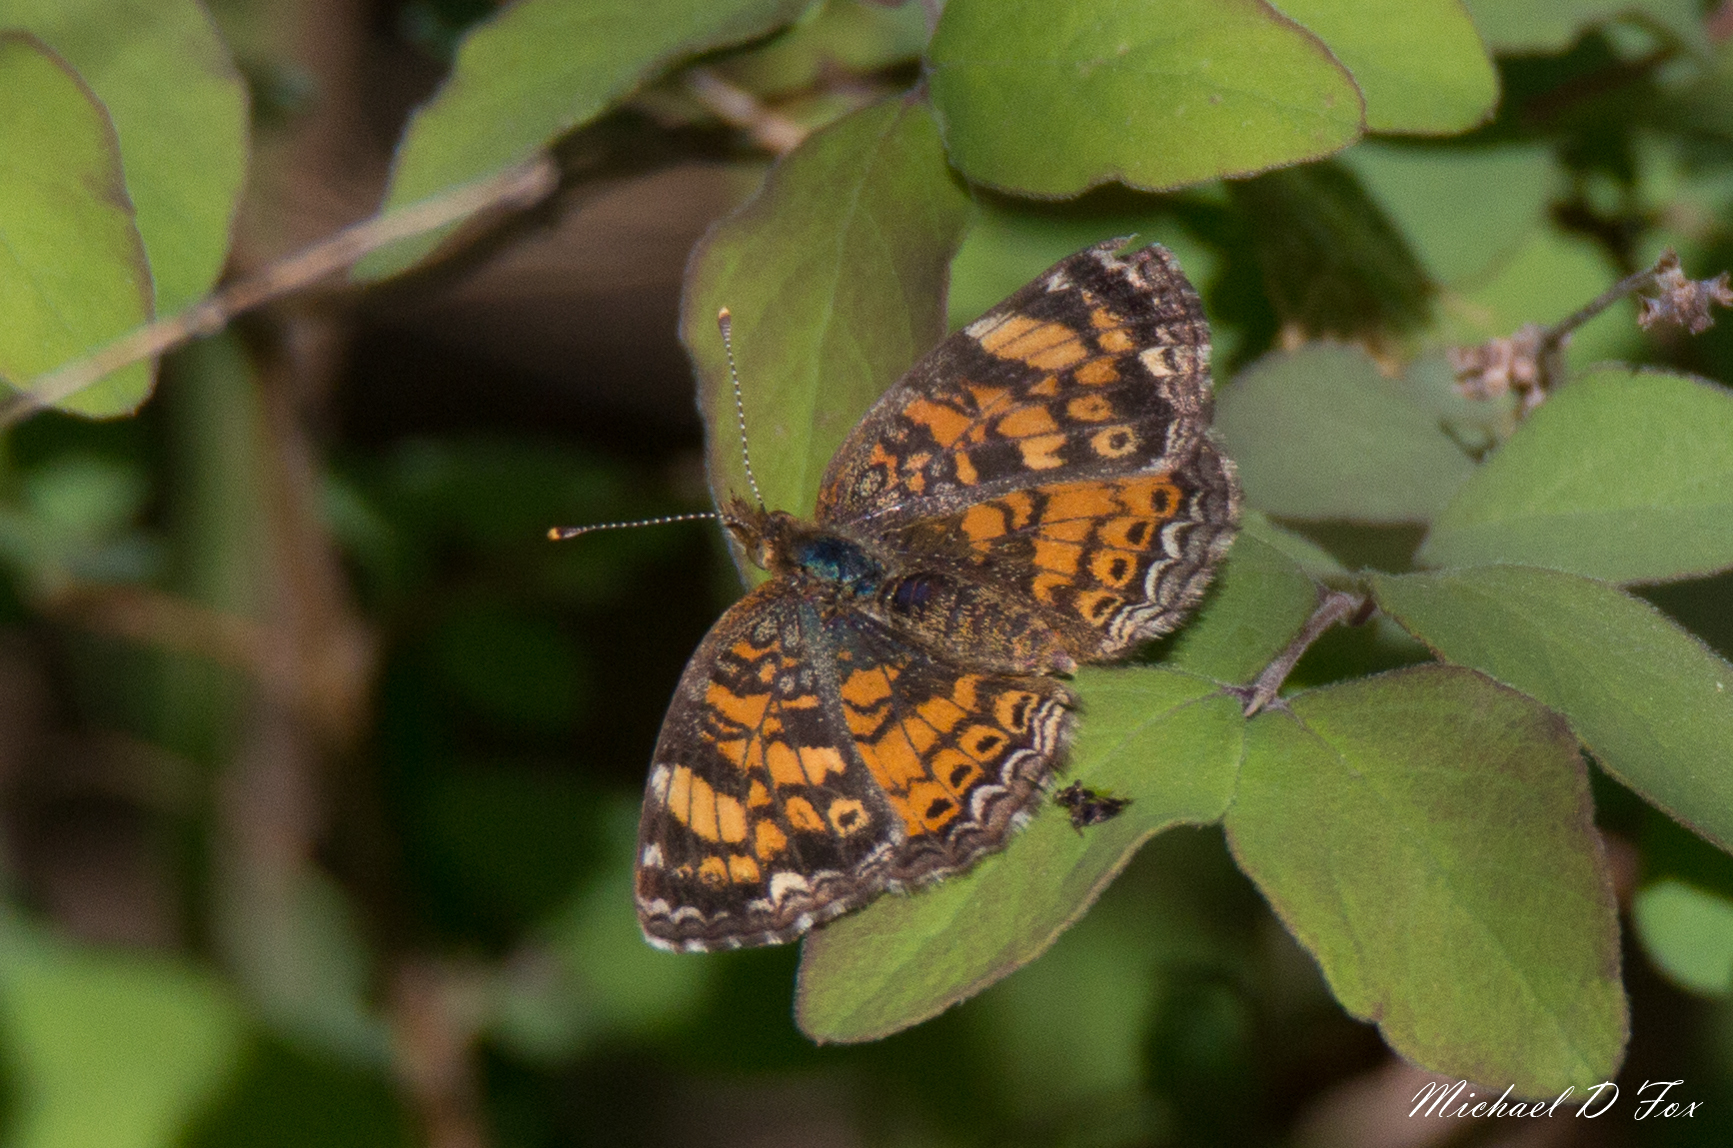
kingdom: Animalia
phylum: Arthropoda
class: Insecta
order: Lepidoptera
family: Nymphalidae
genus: Phyciodes
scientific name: Phyciodes tharos
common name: Pearl crescent
